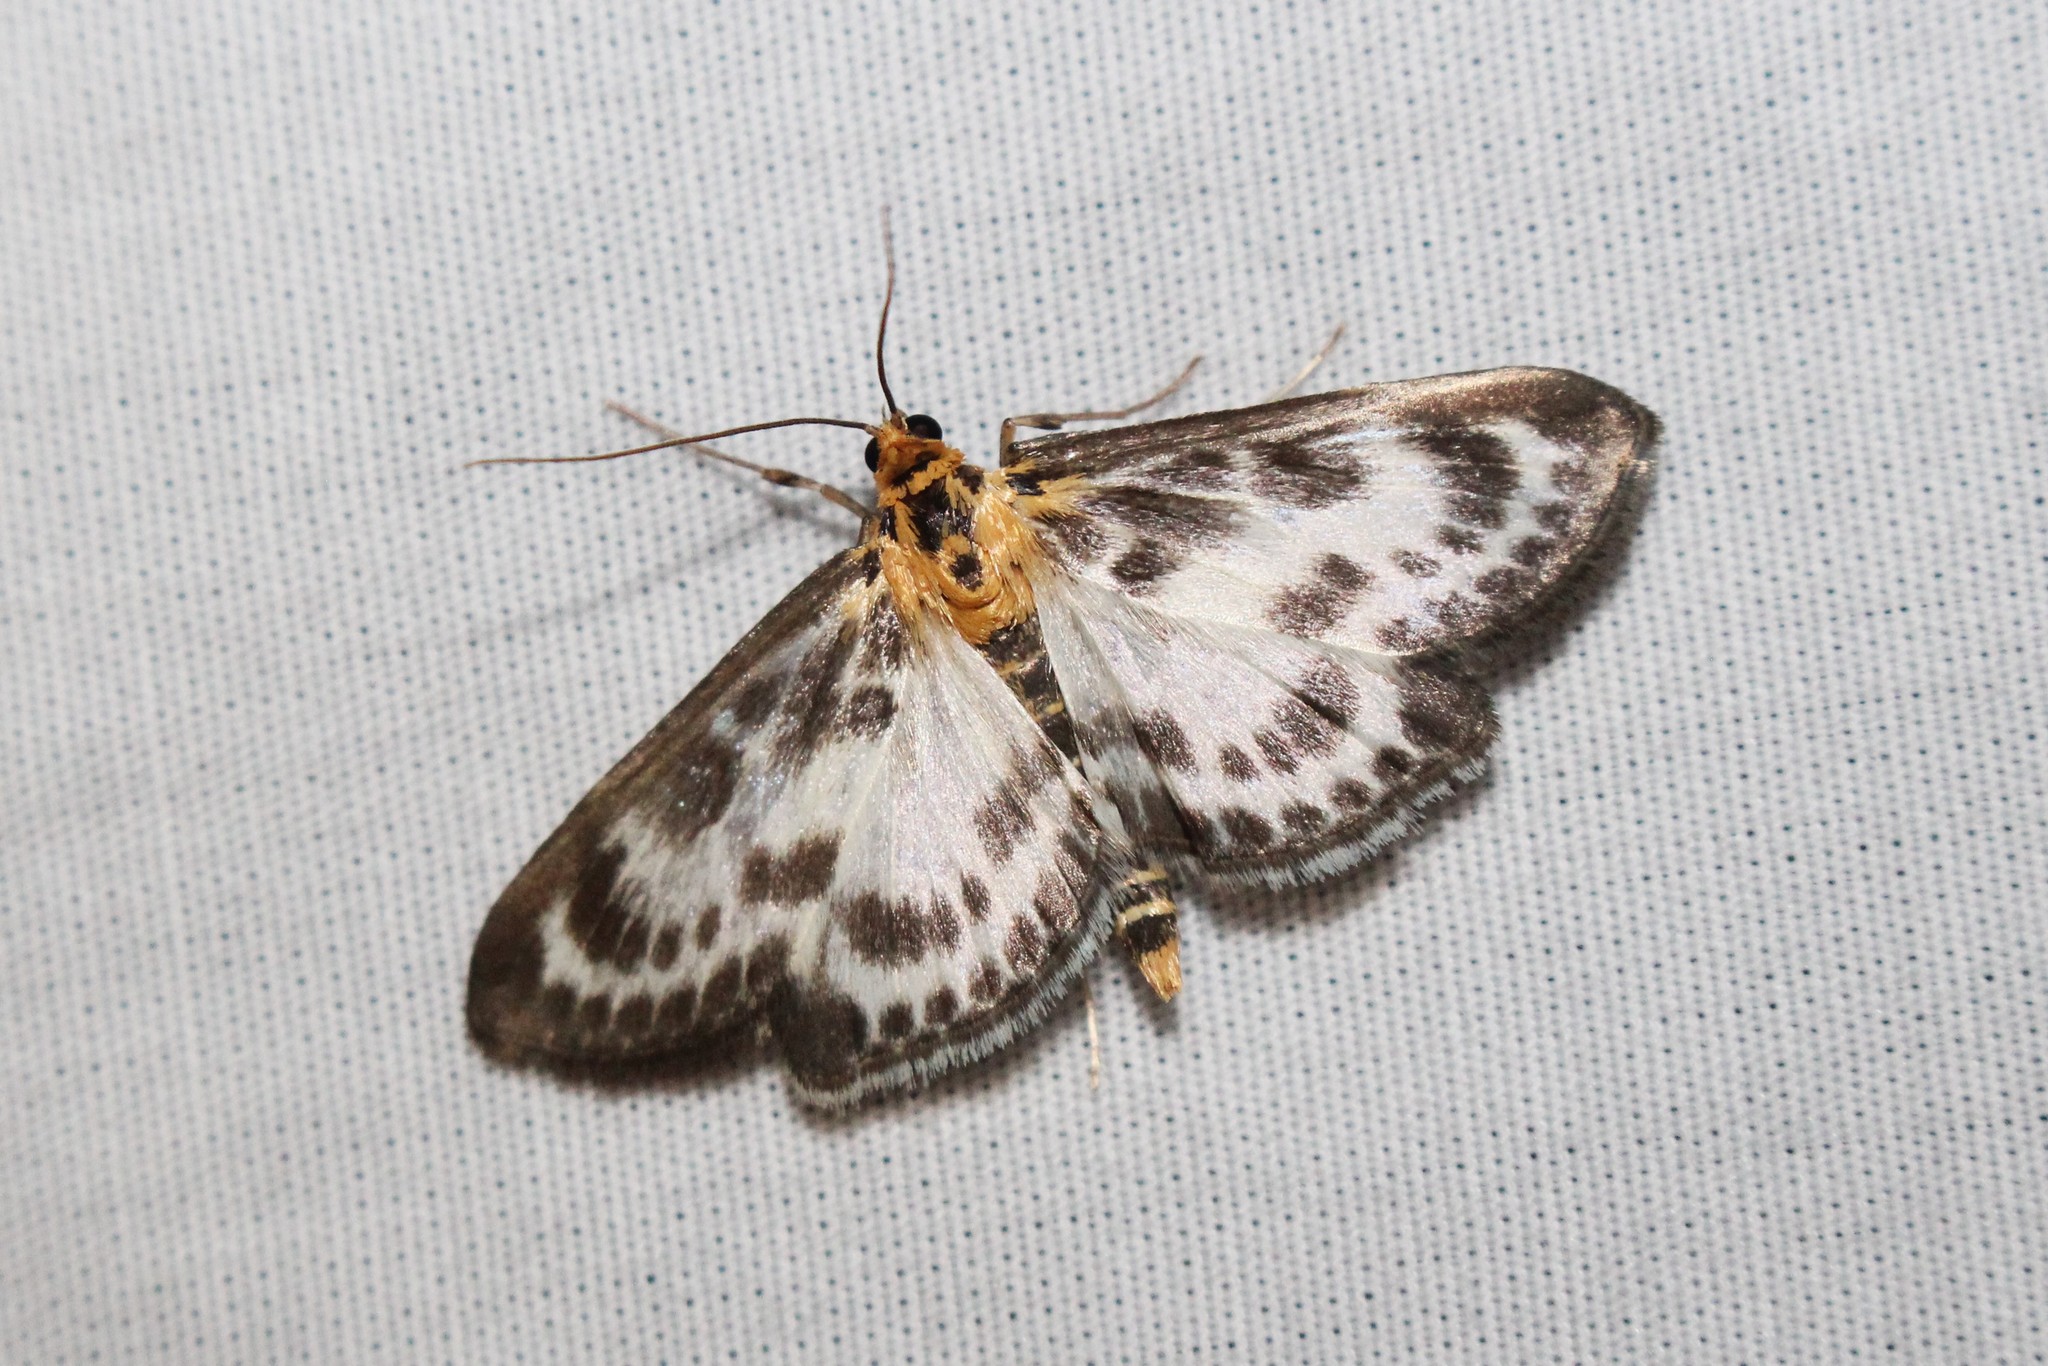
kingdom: Animalia
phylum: Arthropoda
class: Insecta
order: Lepidoptera
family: Crambidae
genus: Anania
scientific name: Anania hortulata
